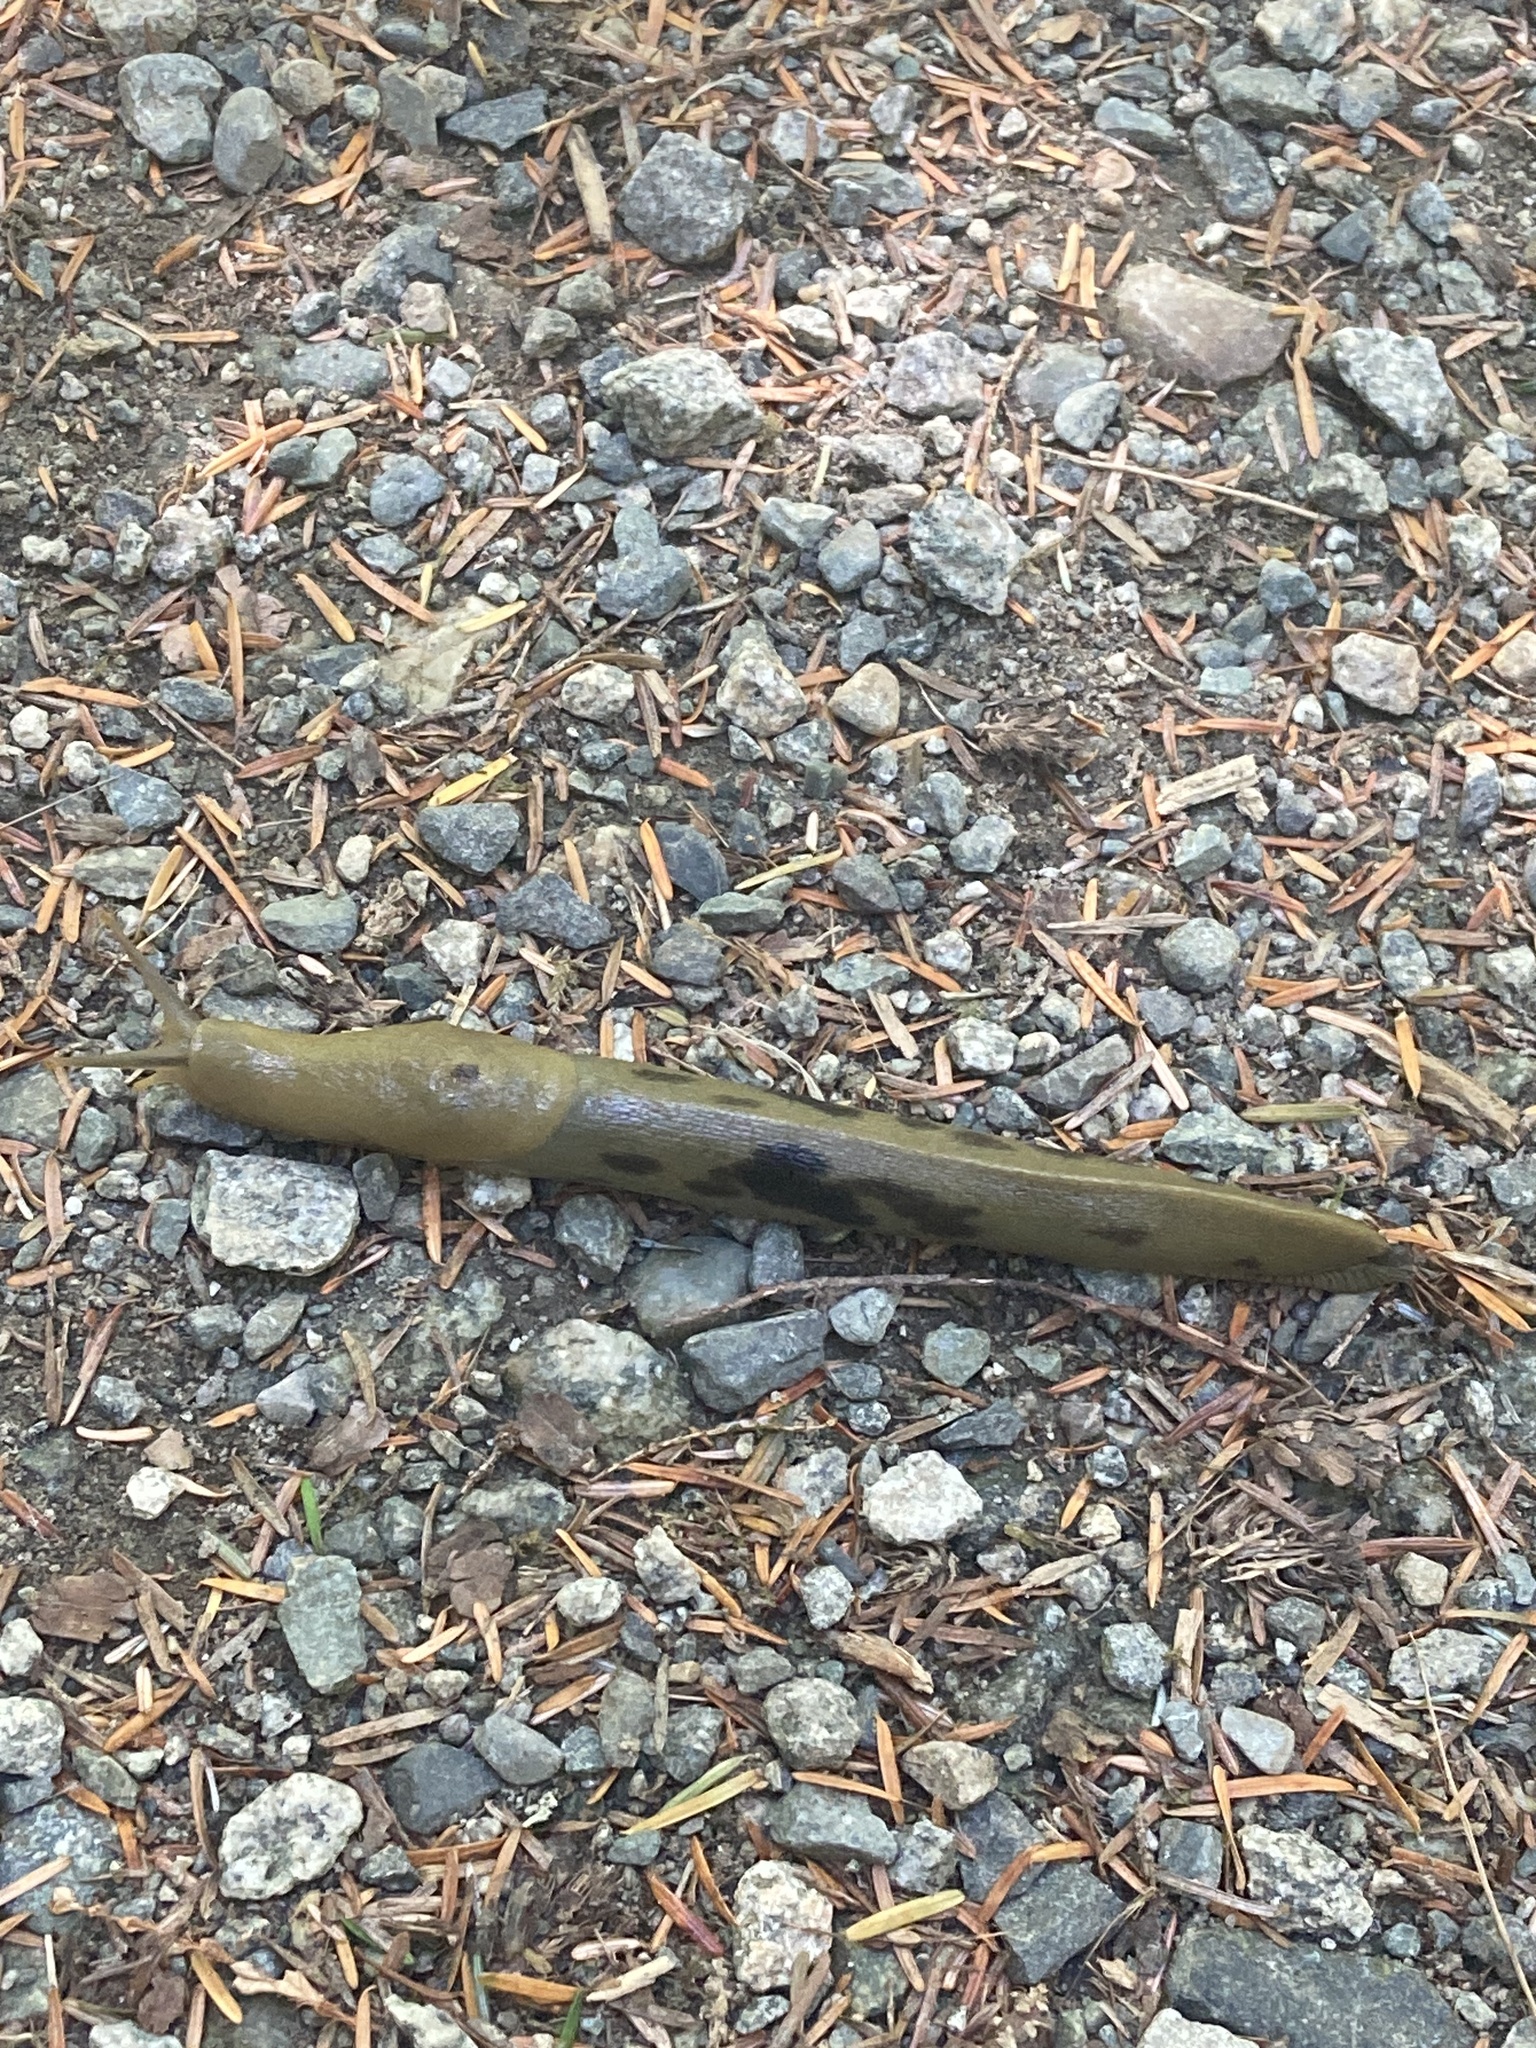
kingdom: Animalia
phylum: Mollusca
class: Gastropoda
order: Stylommatophora
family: Ariolimacidae
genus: Ariolimax
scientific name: Ariolimax columbianus
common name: Pacific banana slug
